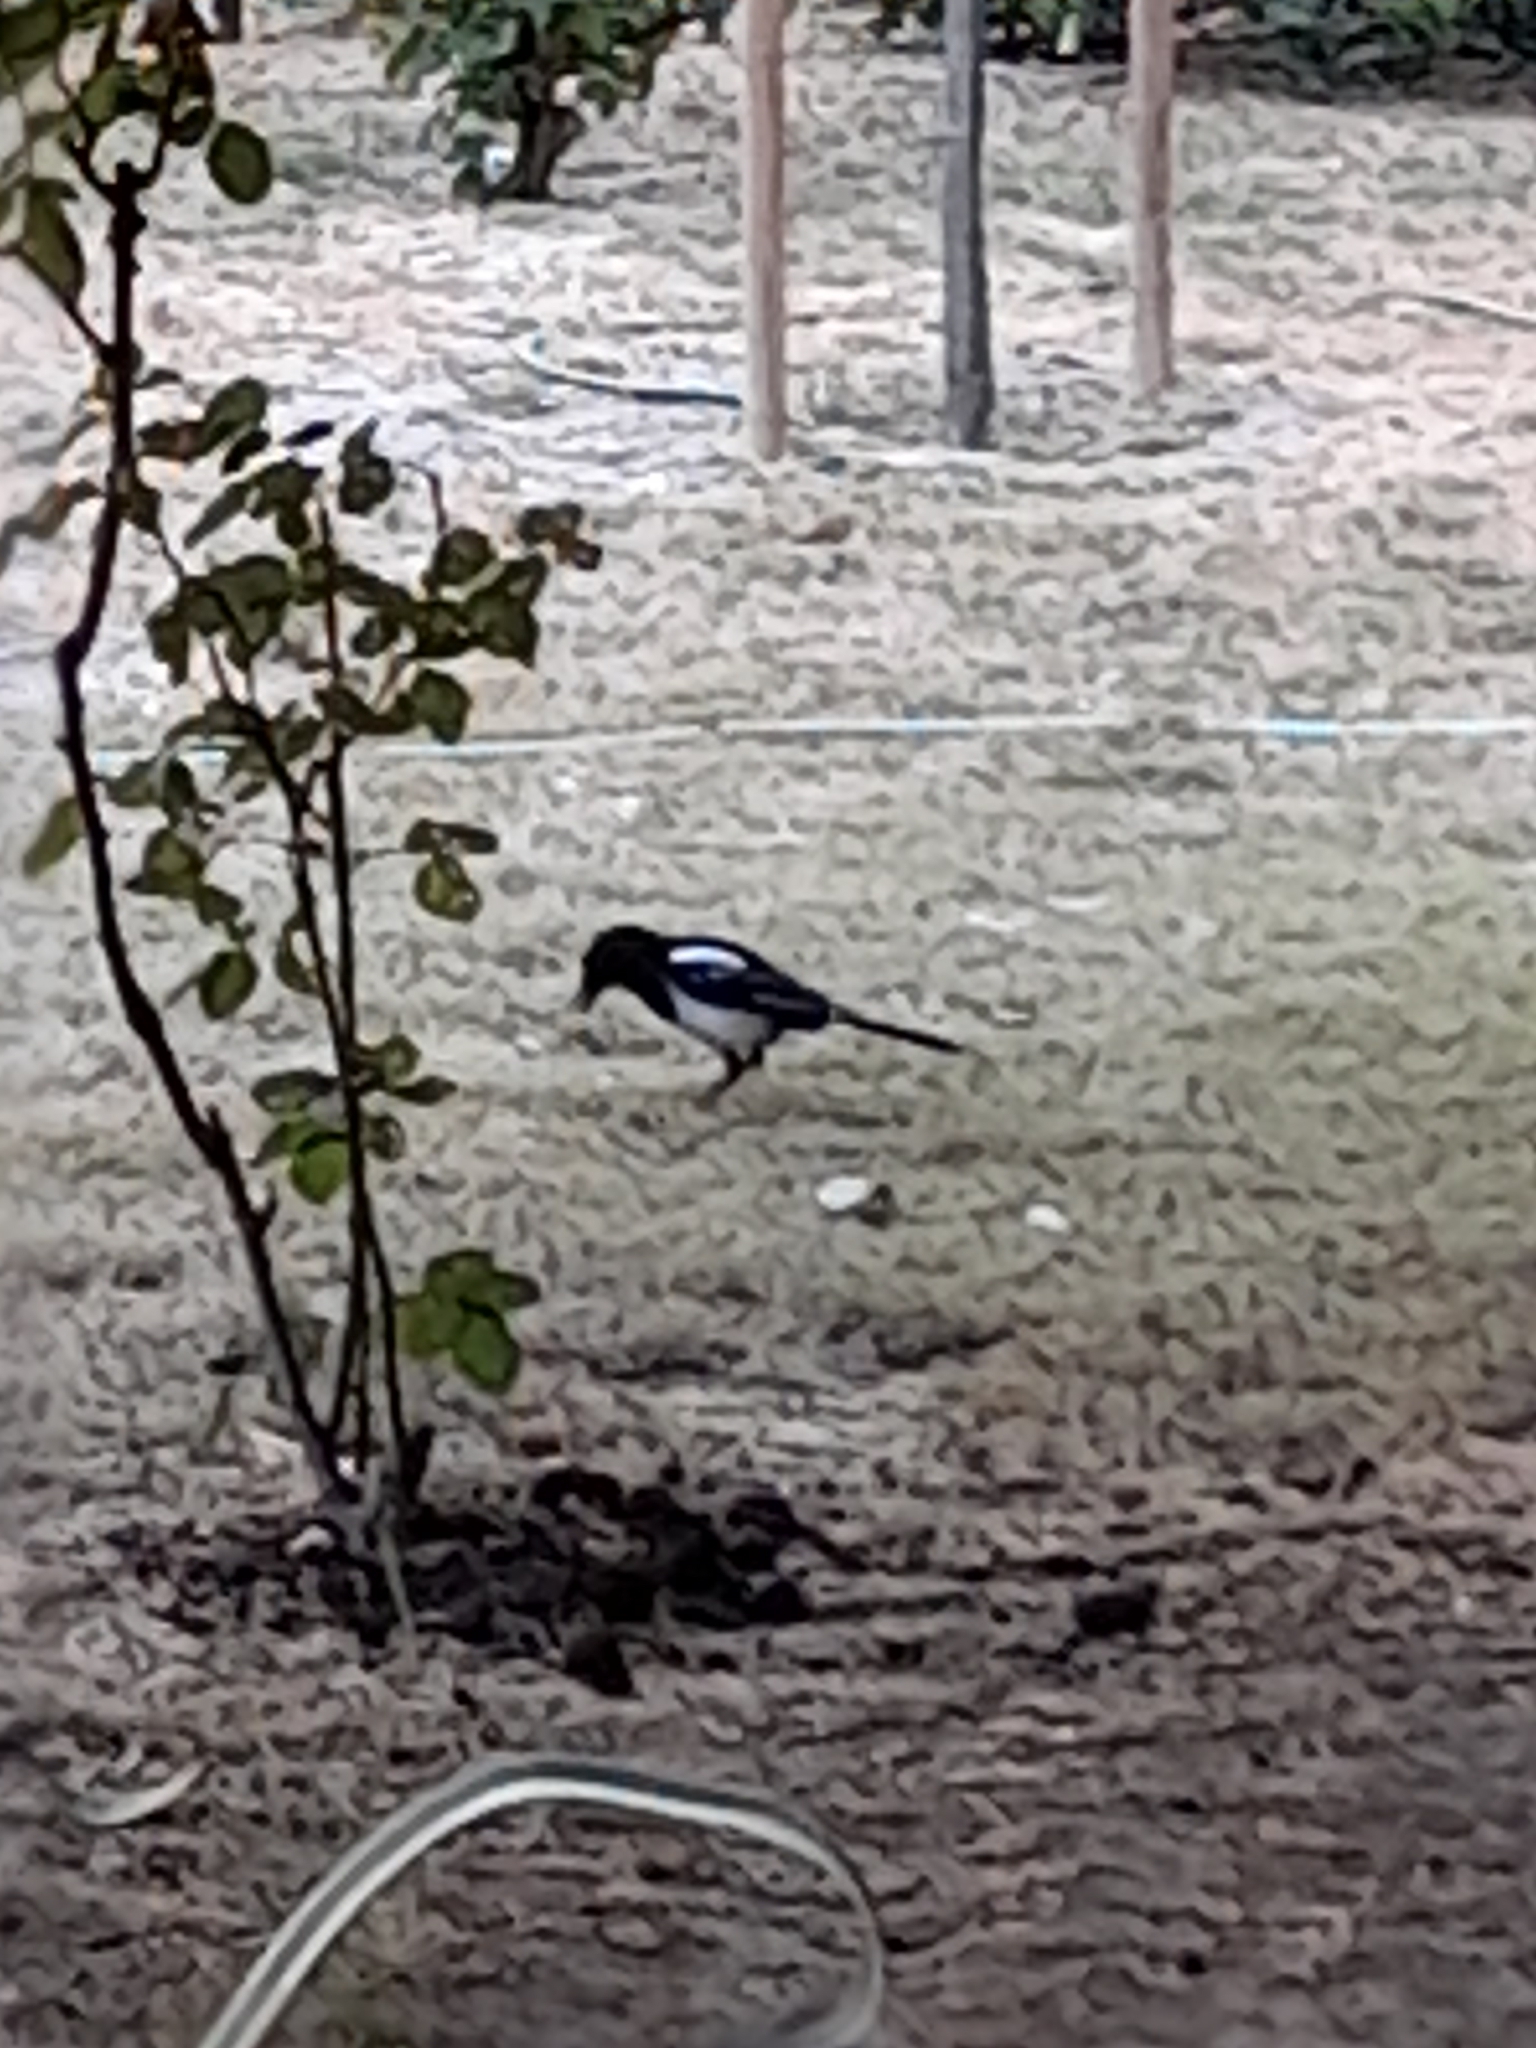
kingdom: Animalia
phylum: Chordata
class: Aves
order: Passeriformes
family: Corvidae
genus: Pica
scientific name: Pica pica
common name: Eurasian magpie
